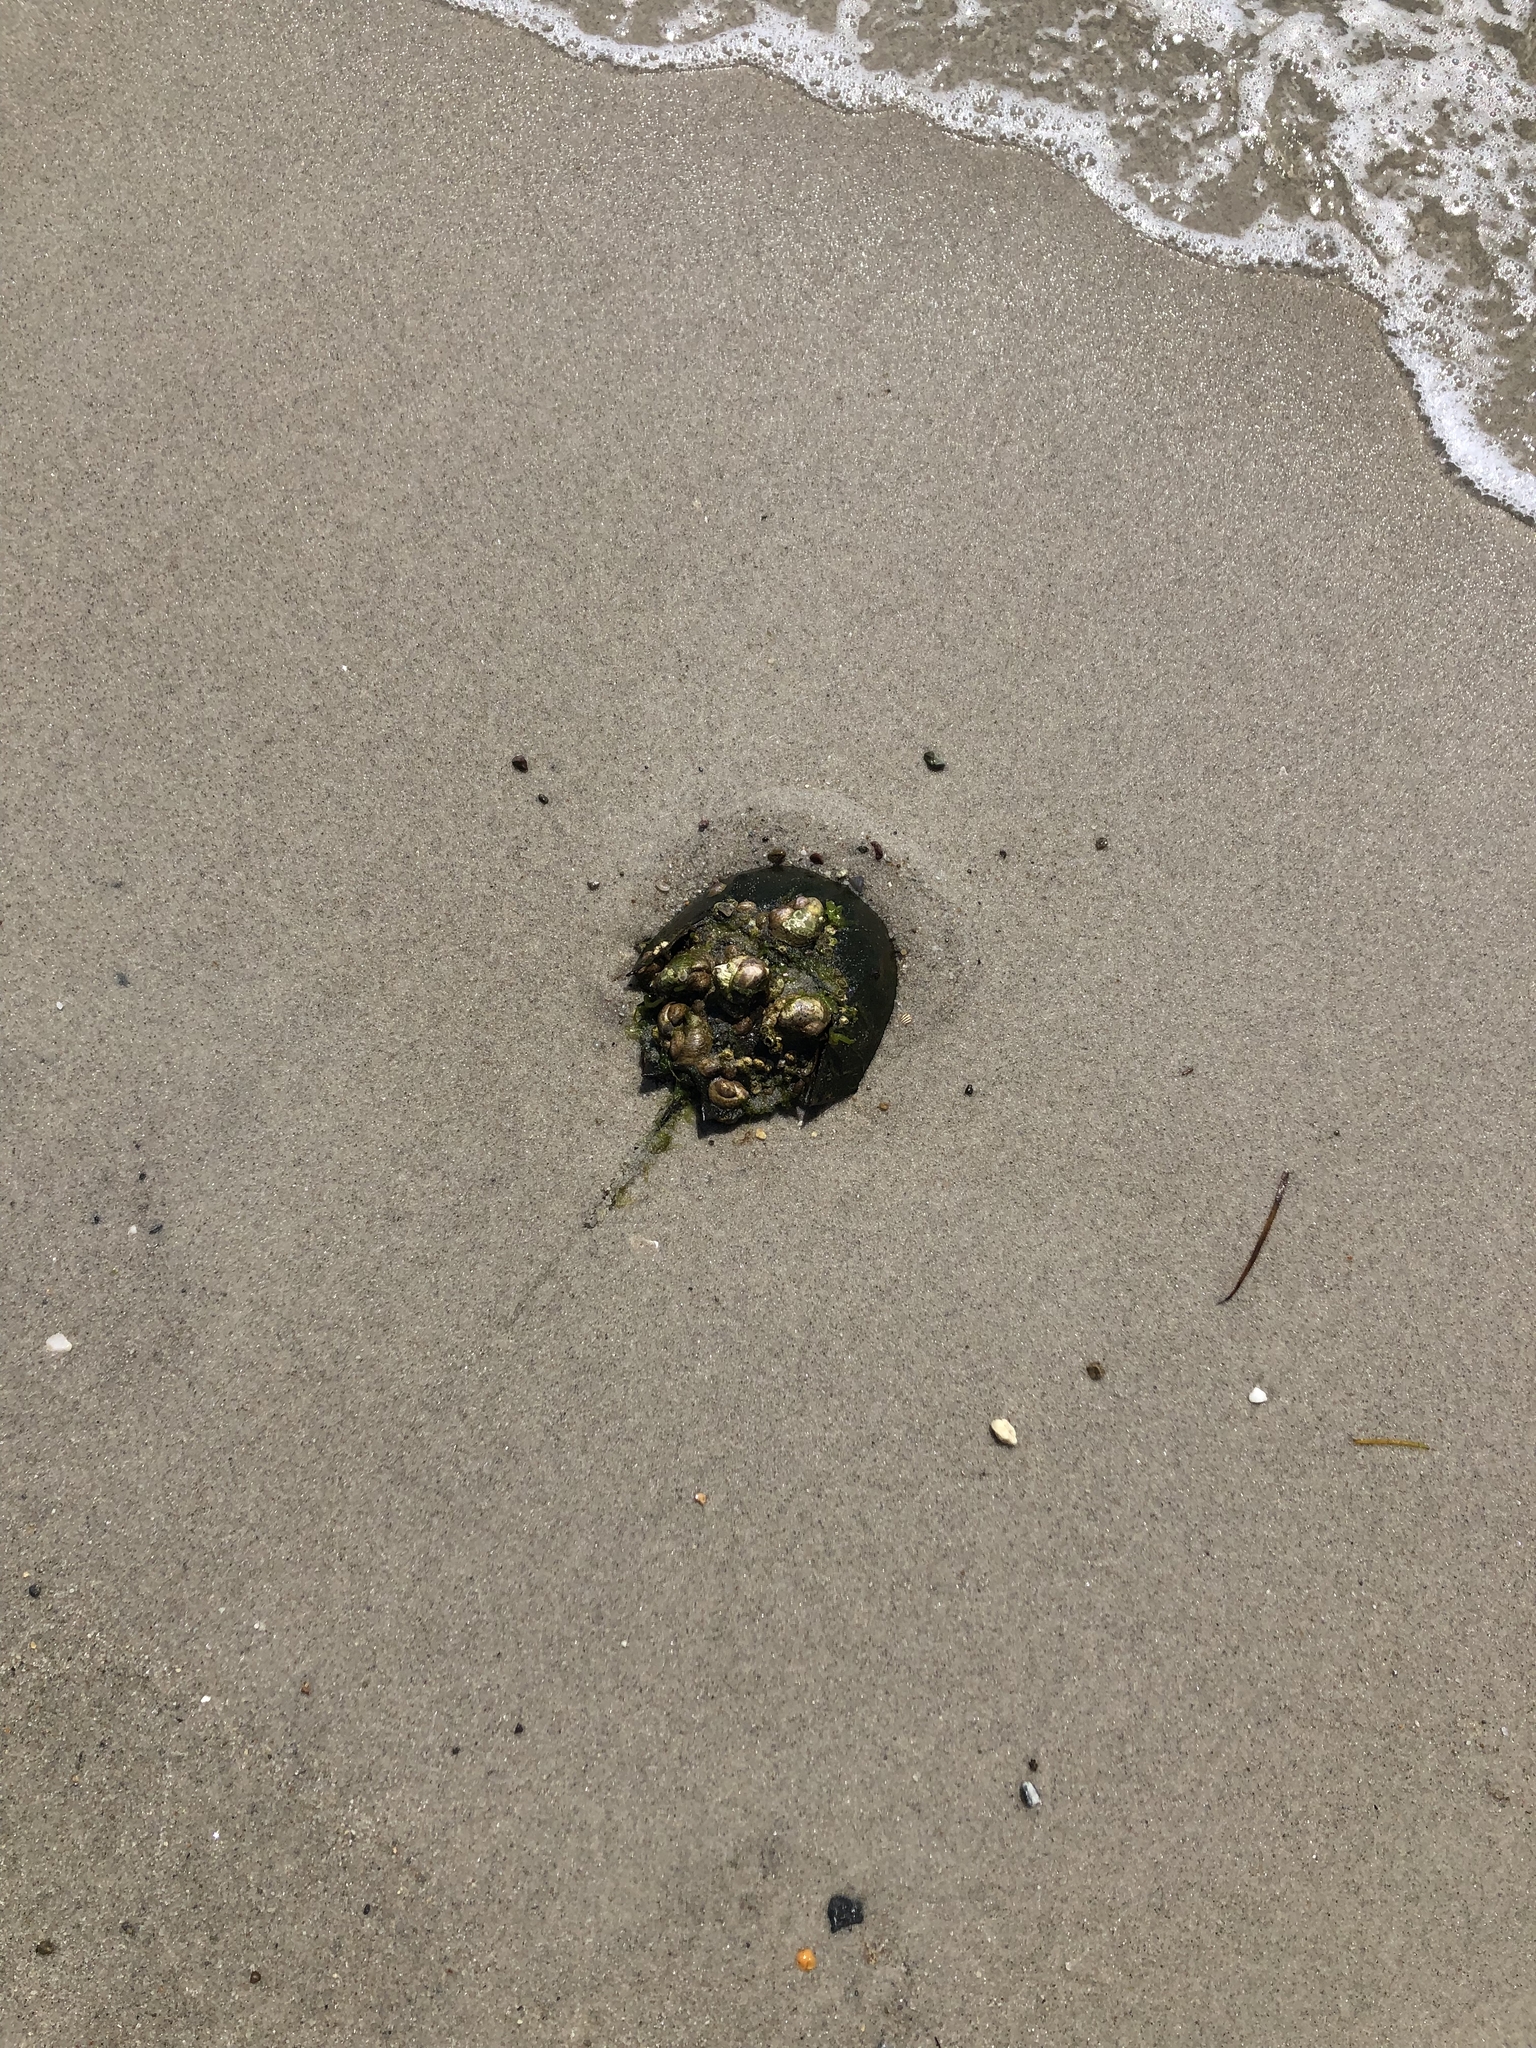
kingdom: Animalia
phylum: Arthropoda
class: Merostomata
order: Xiphosurida
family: Limulidae
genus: Limulus
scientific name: Limulus polyphemus
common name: Horseshoe crab
